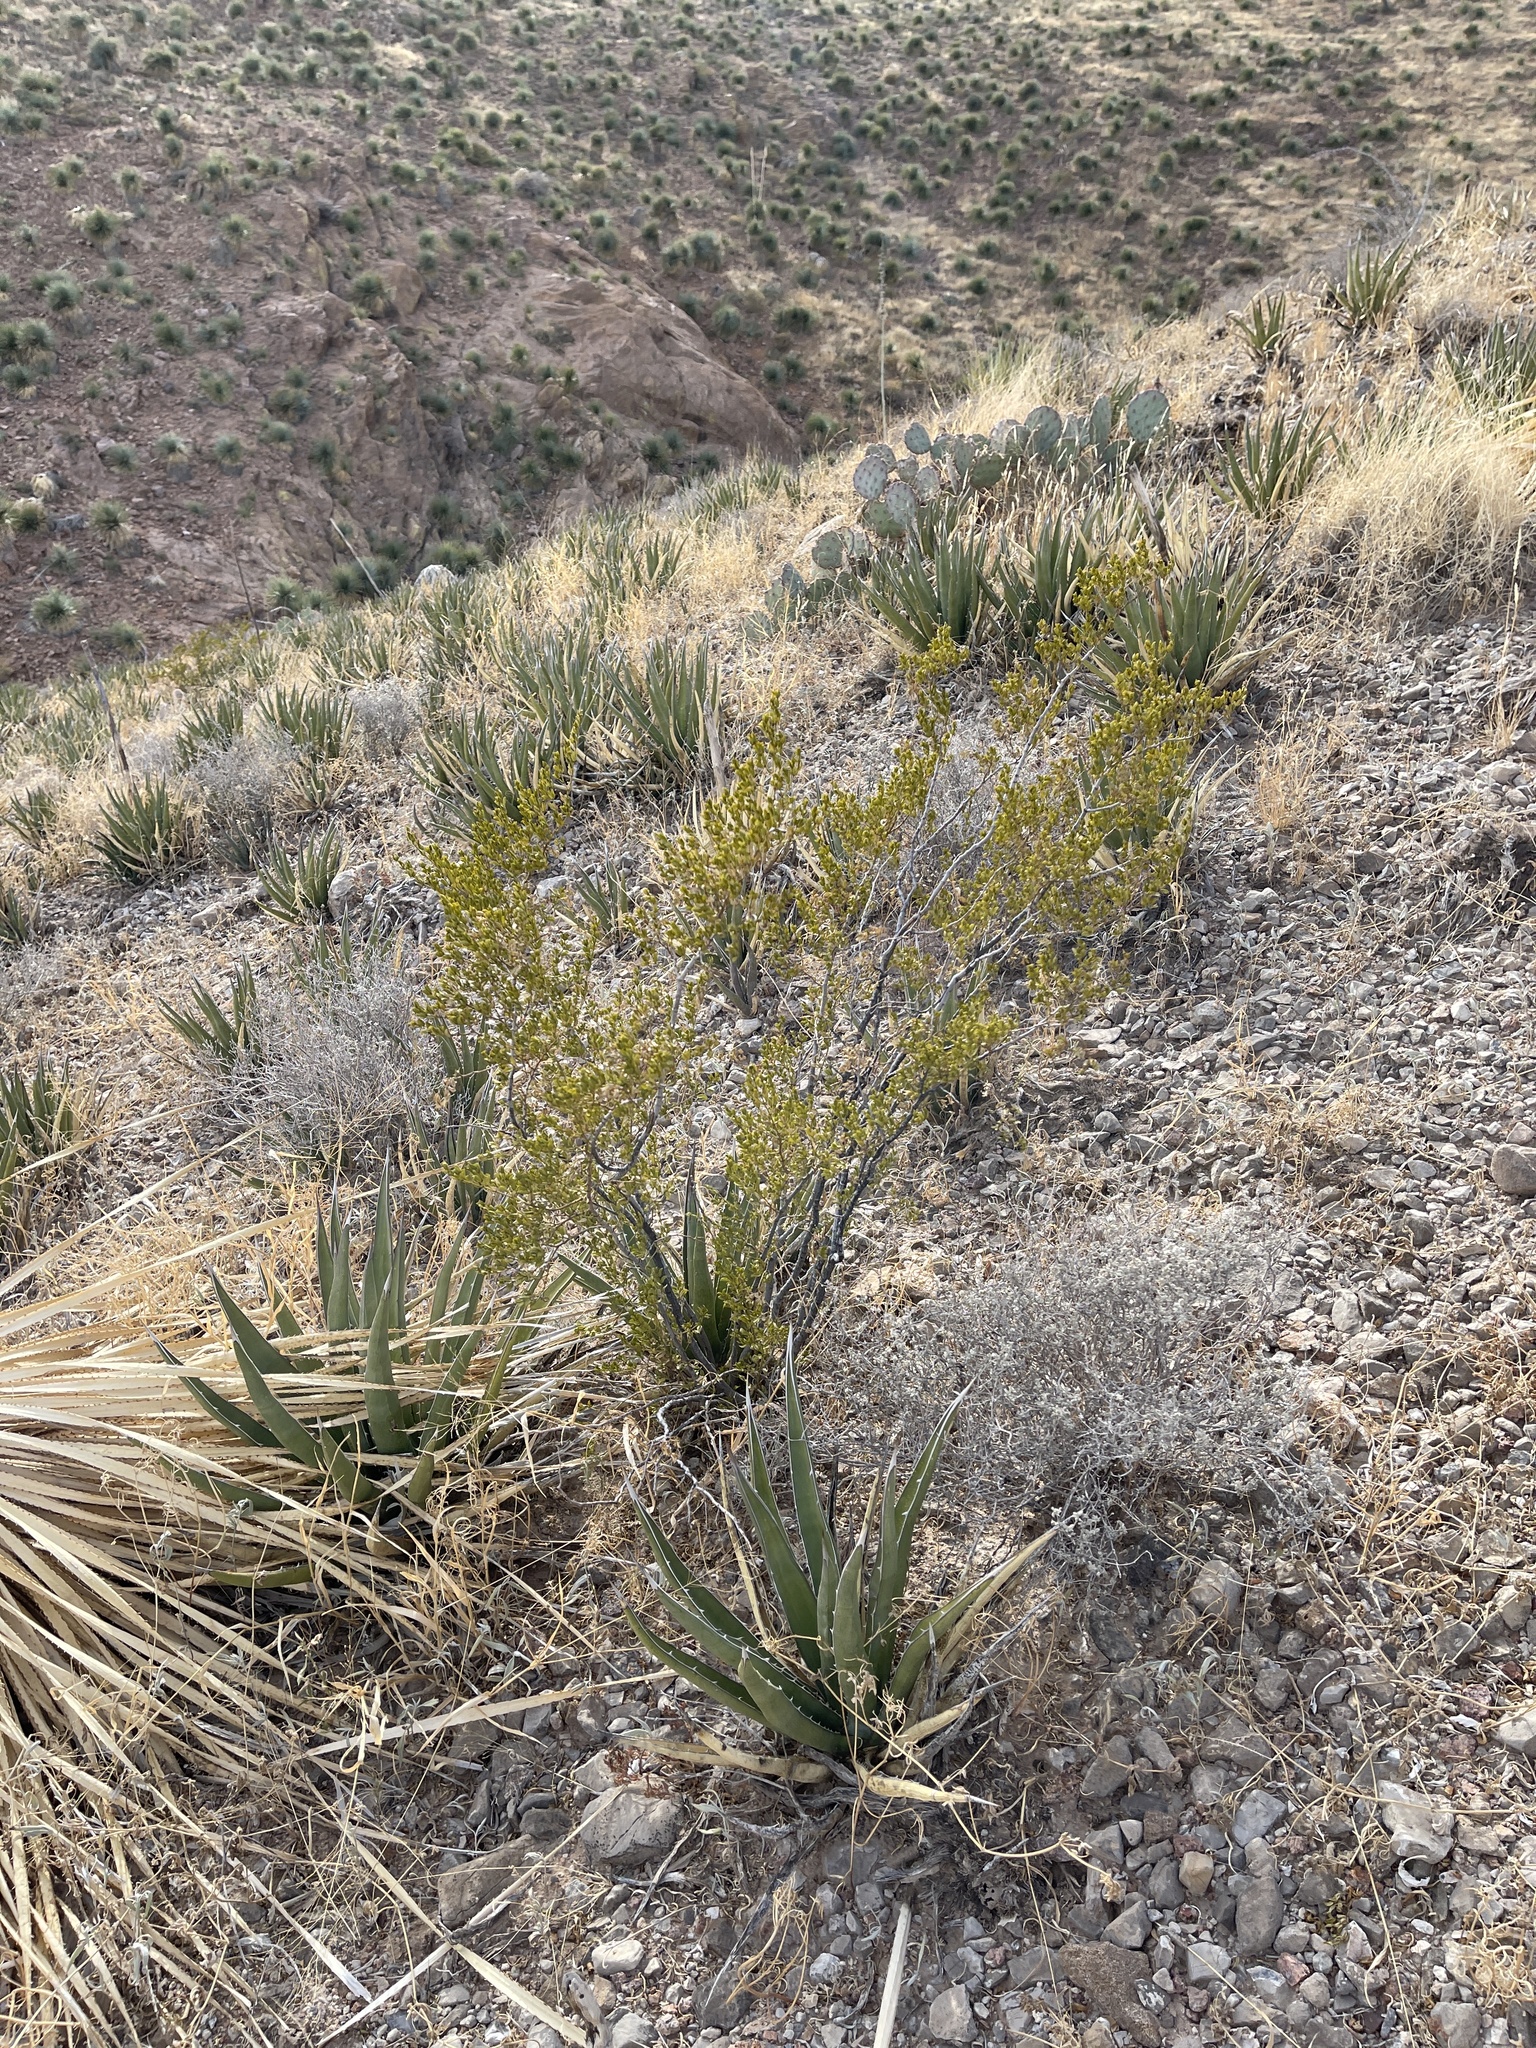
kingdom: Plantae
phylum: Tracheophyta
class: Magnoliopsida
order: Zygophyllales
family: Zygophyllaceae
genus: Larrea
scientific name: Larrea tridentata
